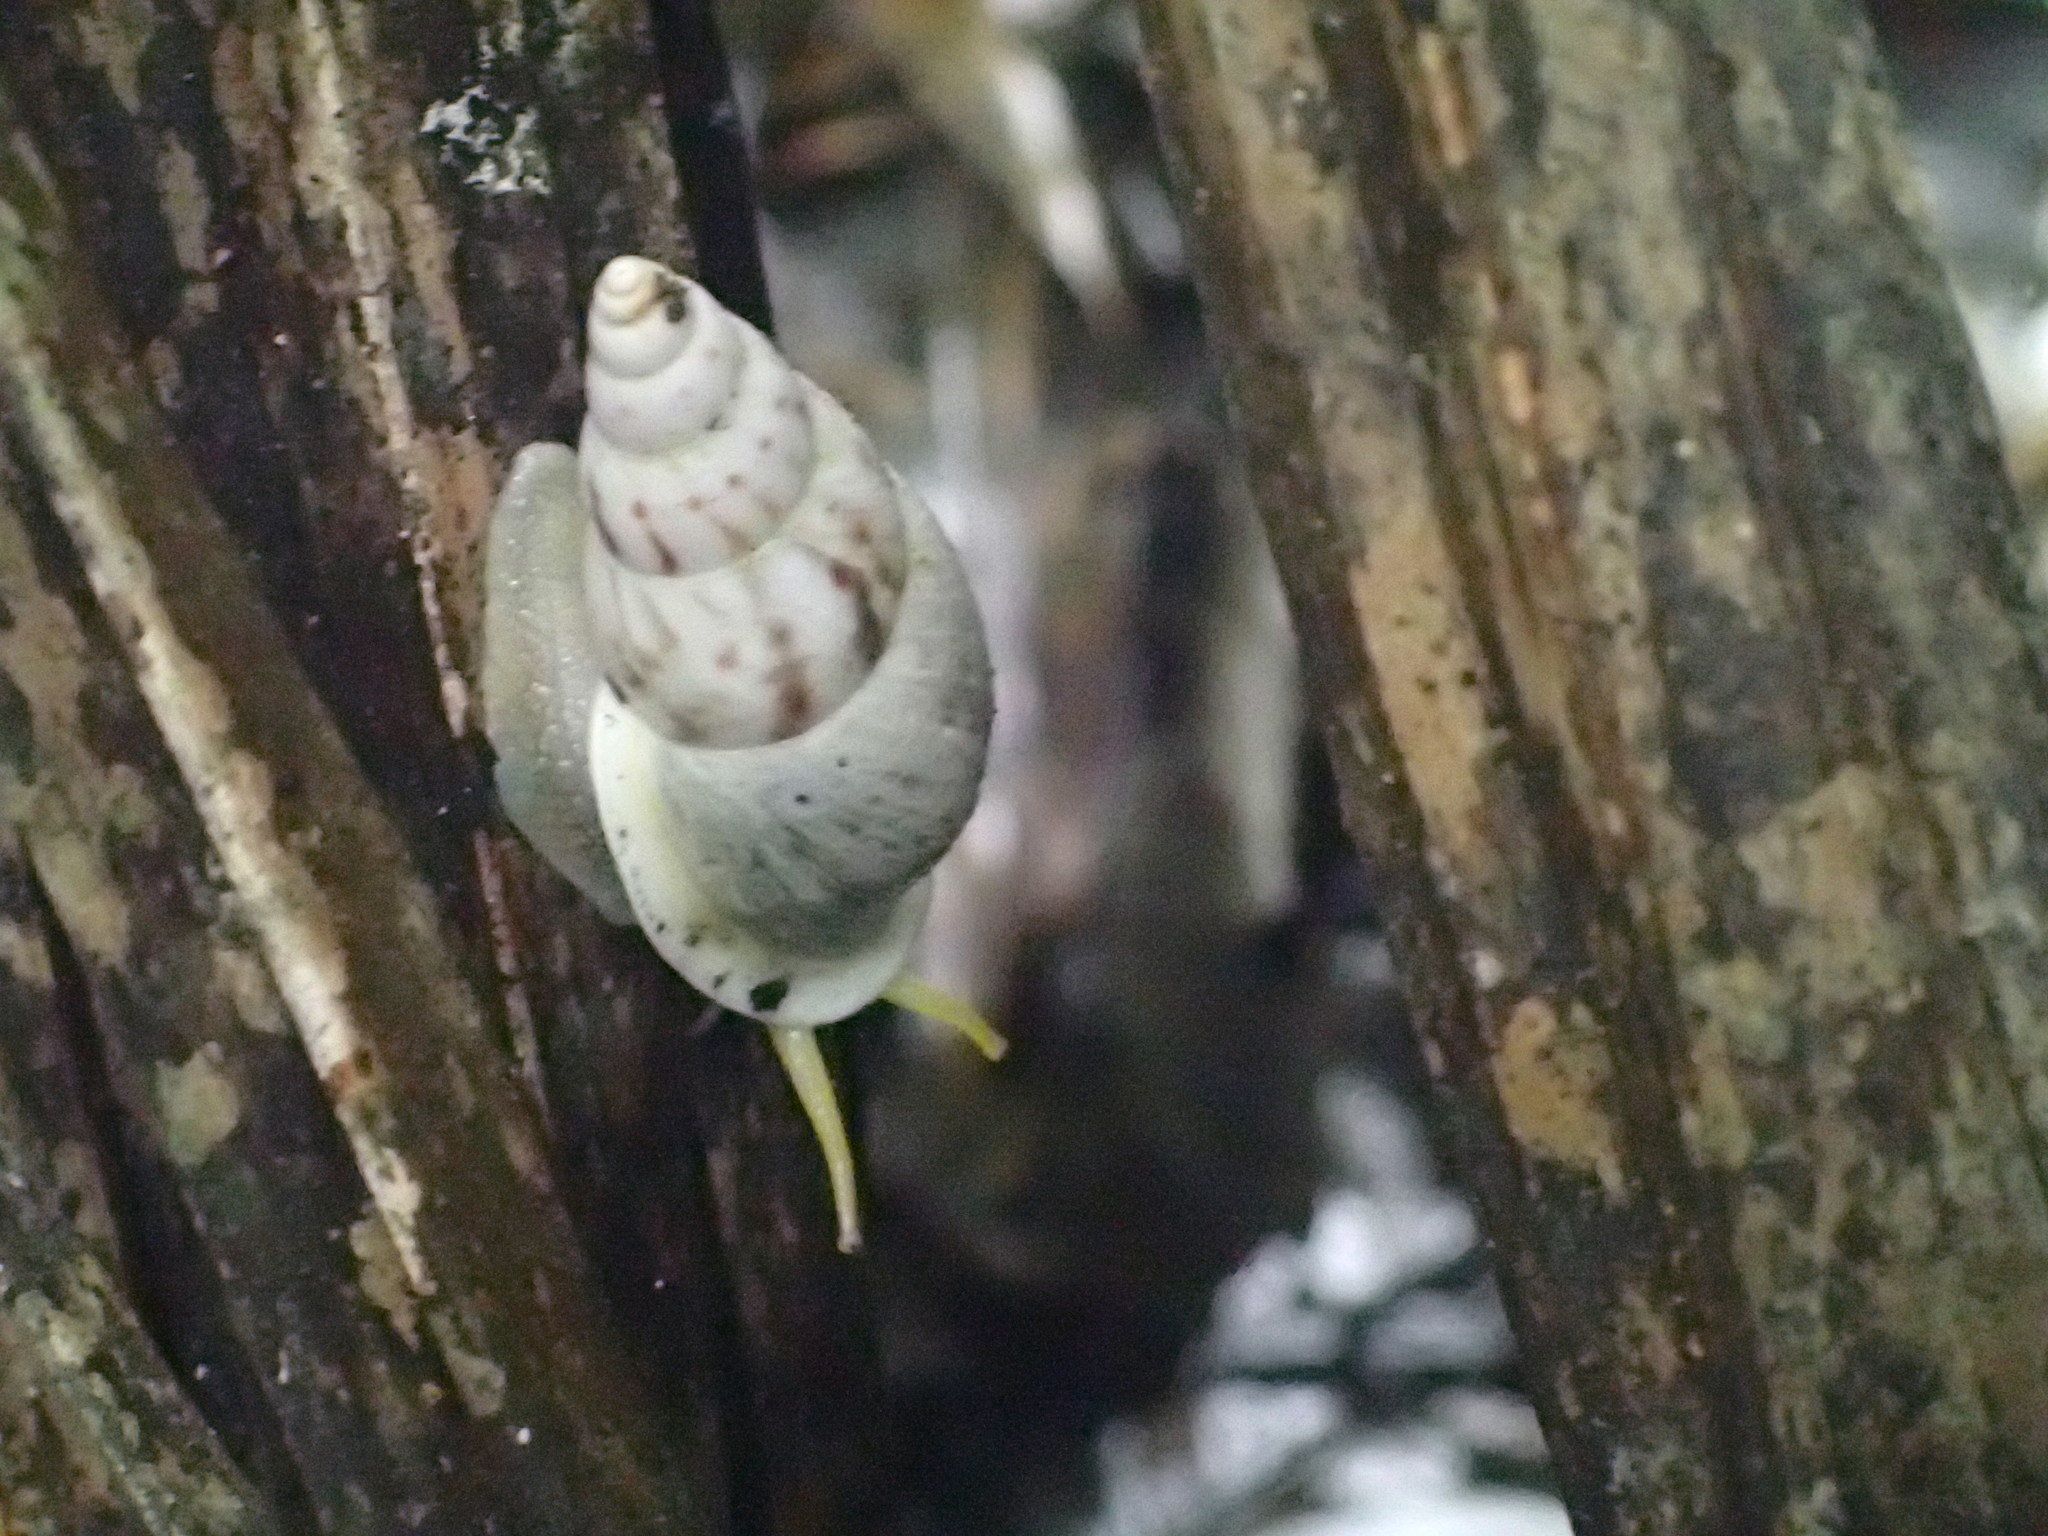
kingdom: Animalia
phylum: Mollusca
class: Gastropoda
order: Stylommatophora
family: Bulimulidae
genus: Drymaeus
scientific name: Drymaeus expansus
